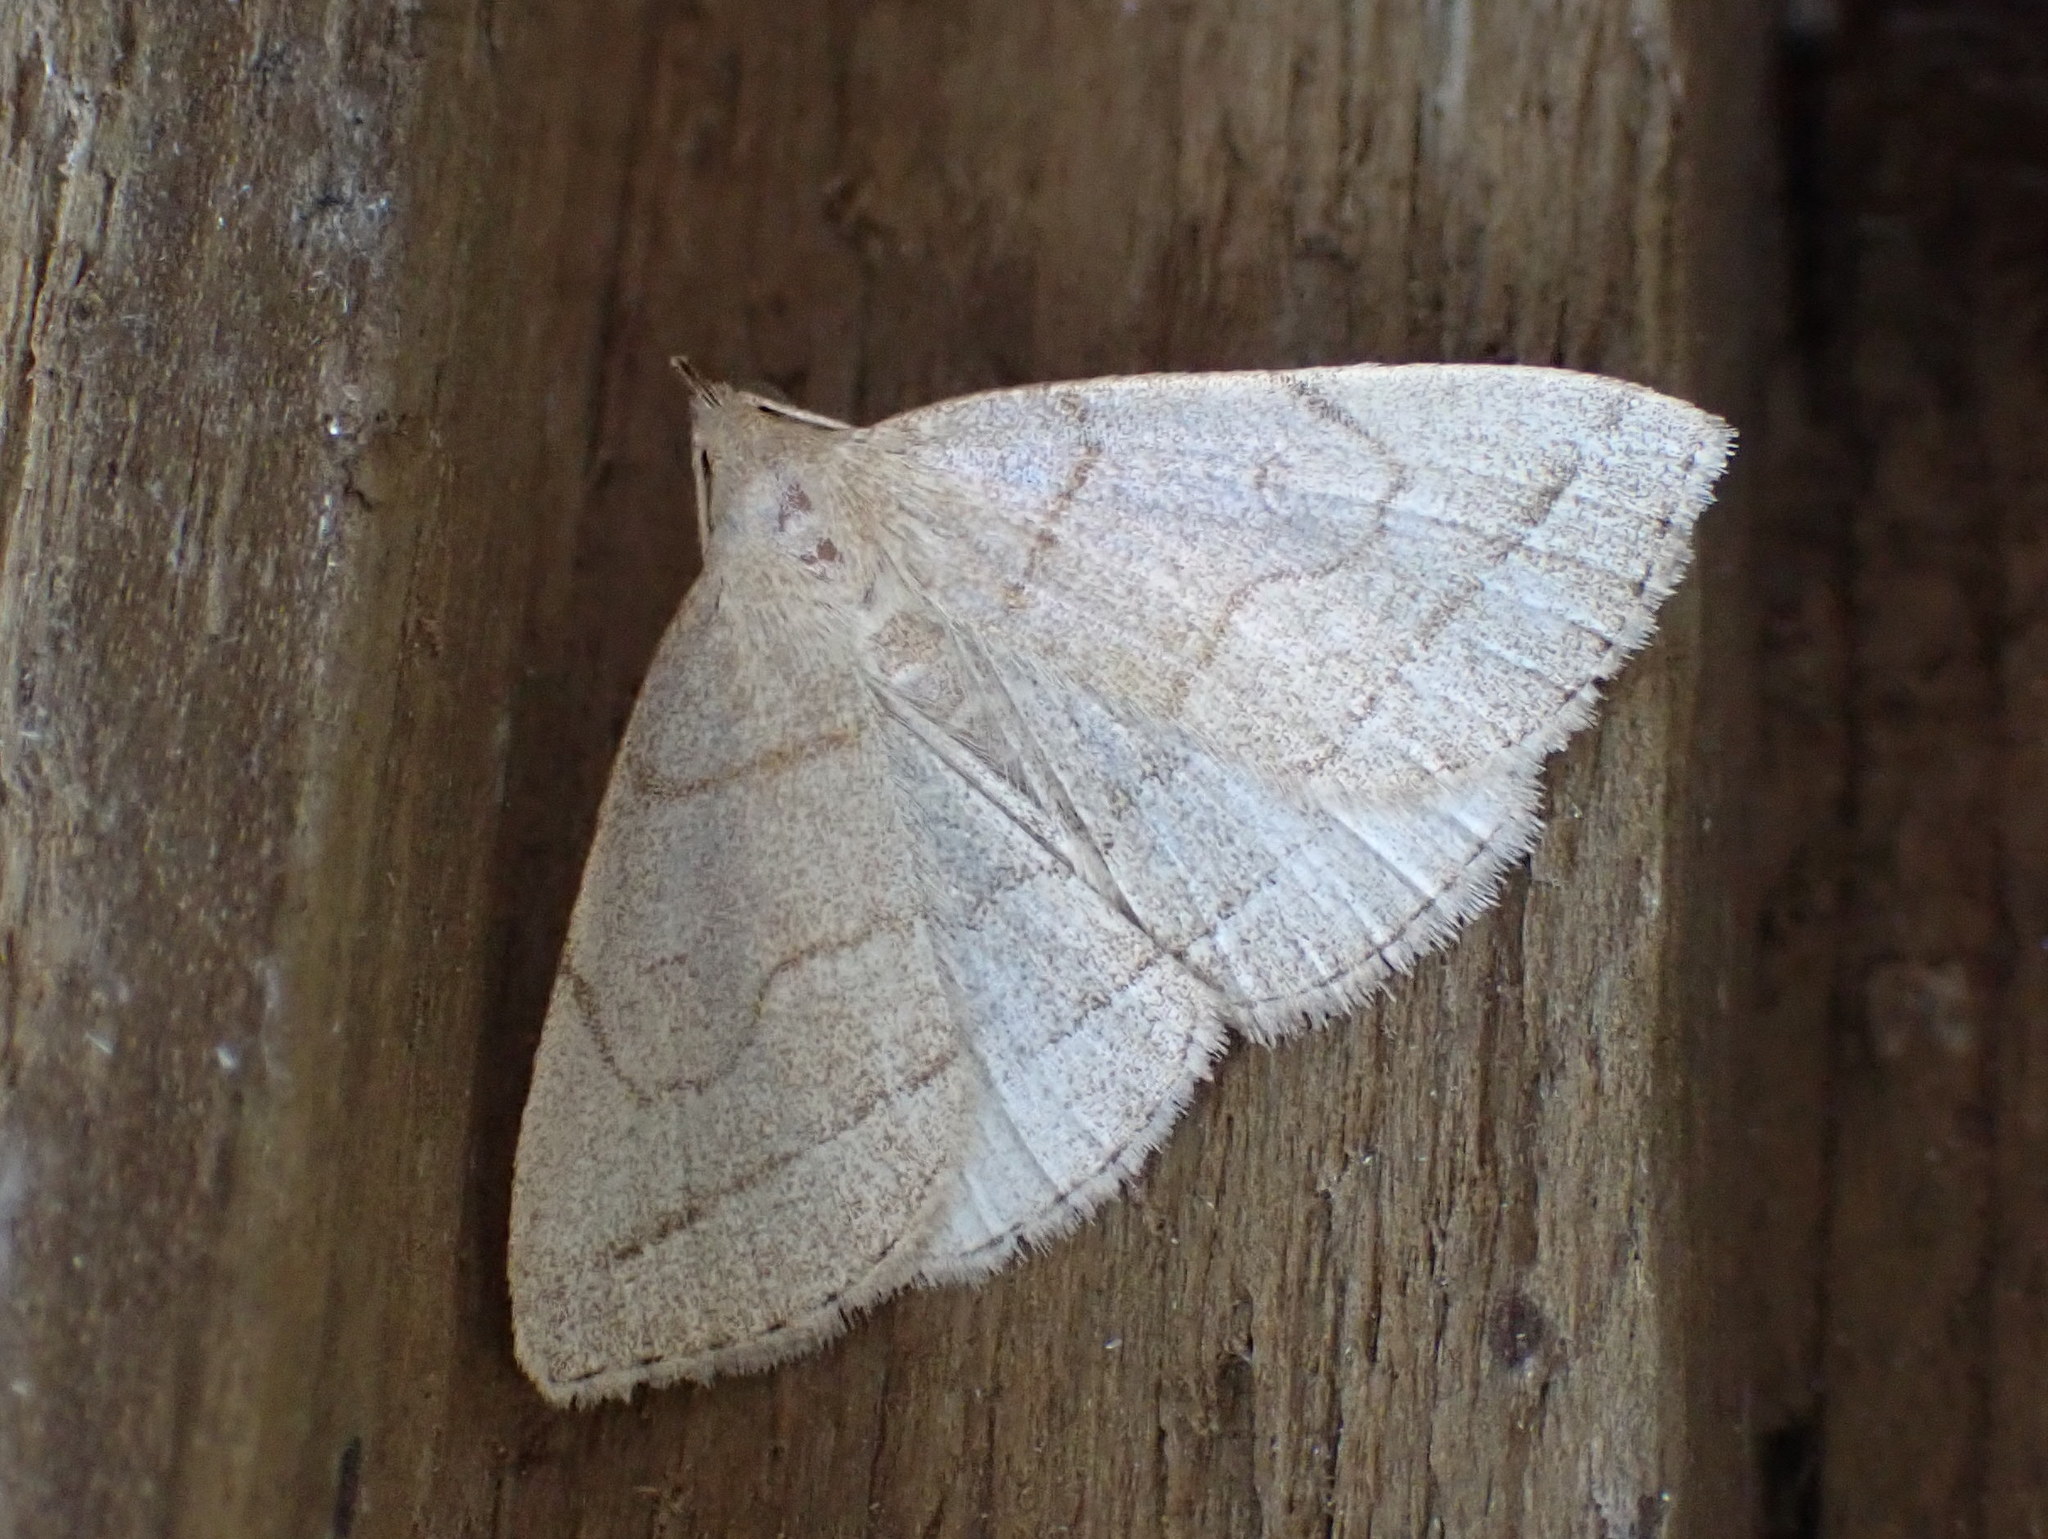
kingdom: Animalia
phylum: Arthropoda
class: Insecta
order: Lepidoptera
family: Erebidae
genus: Zanclognatha
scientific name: Zanclognatha cruralis
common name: Early fan-foot
